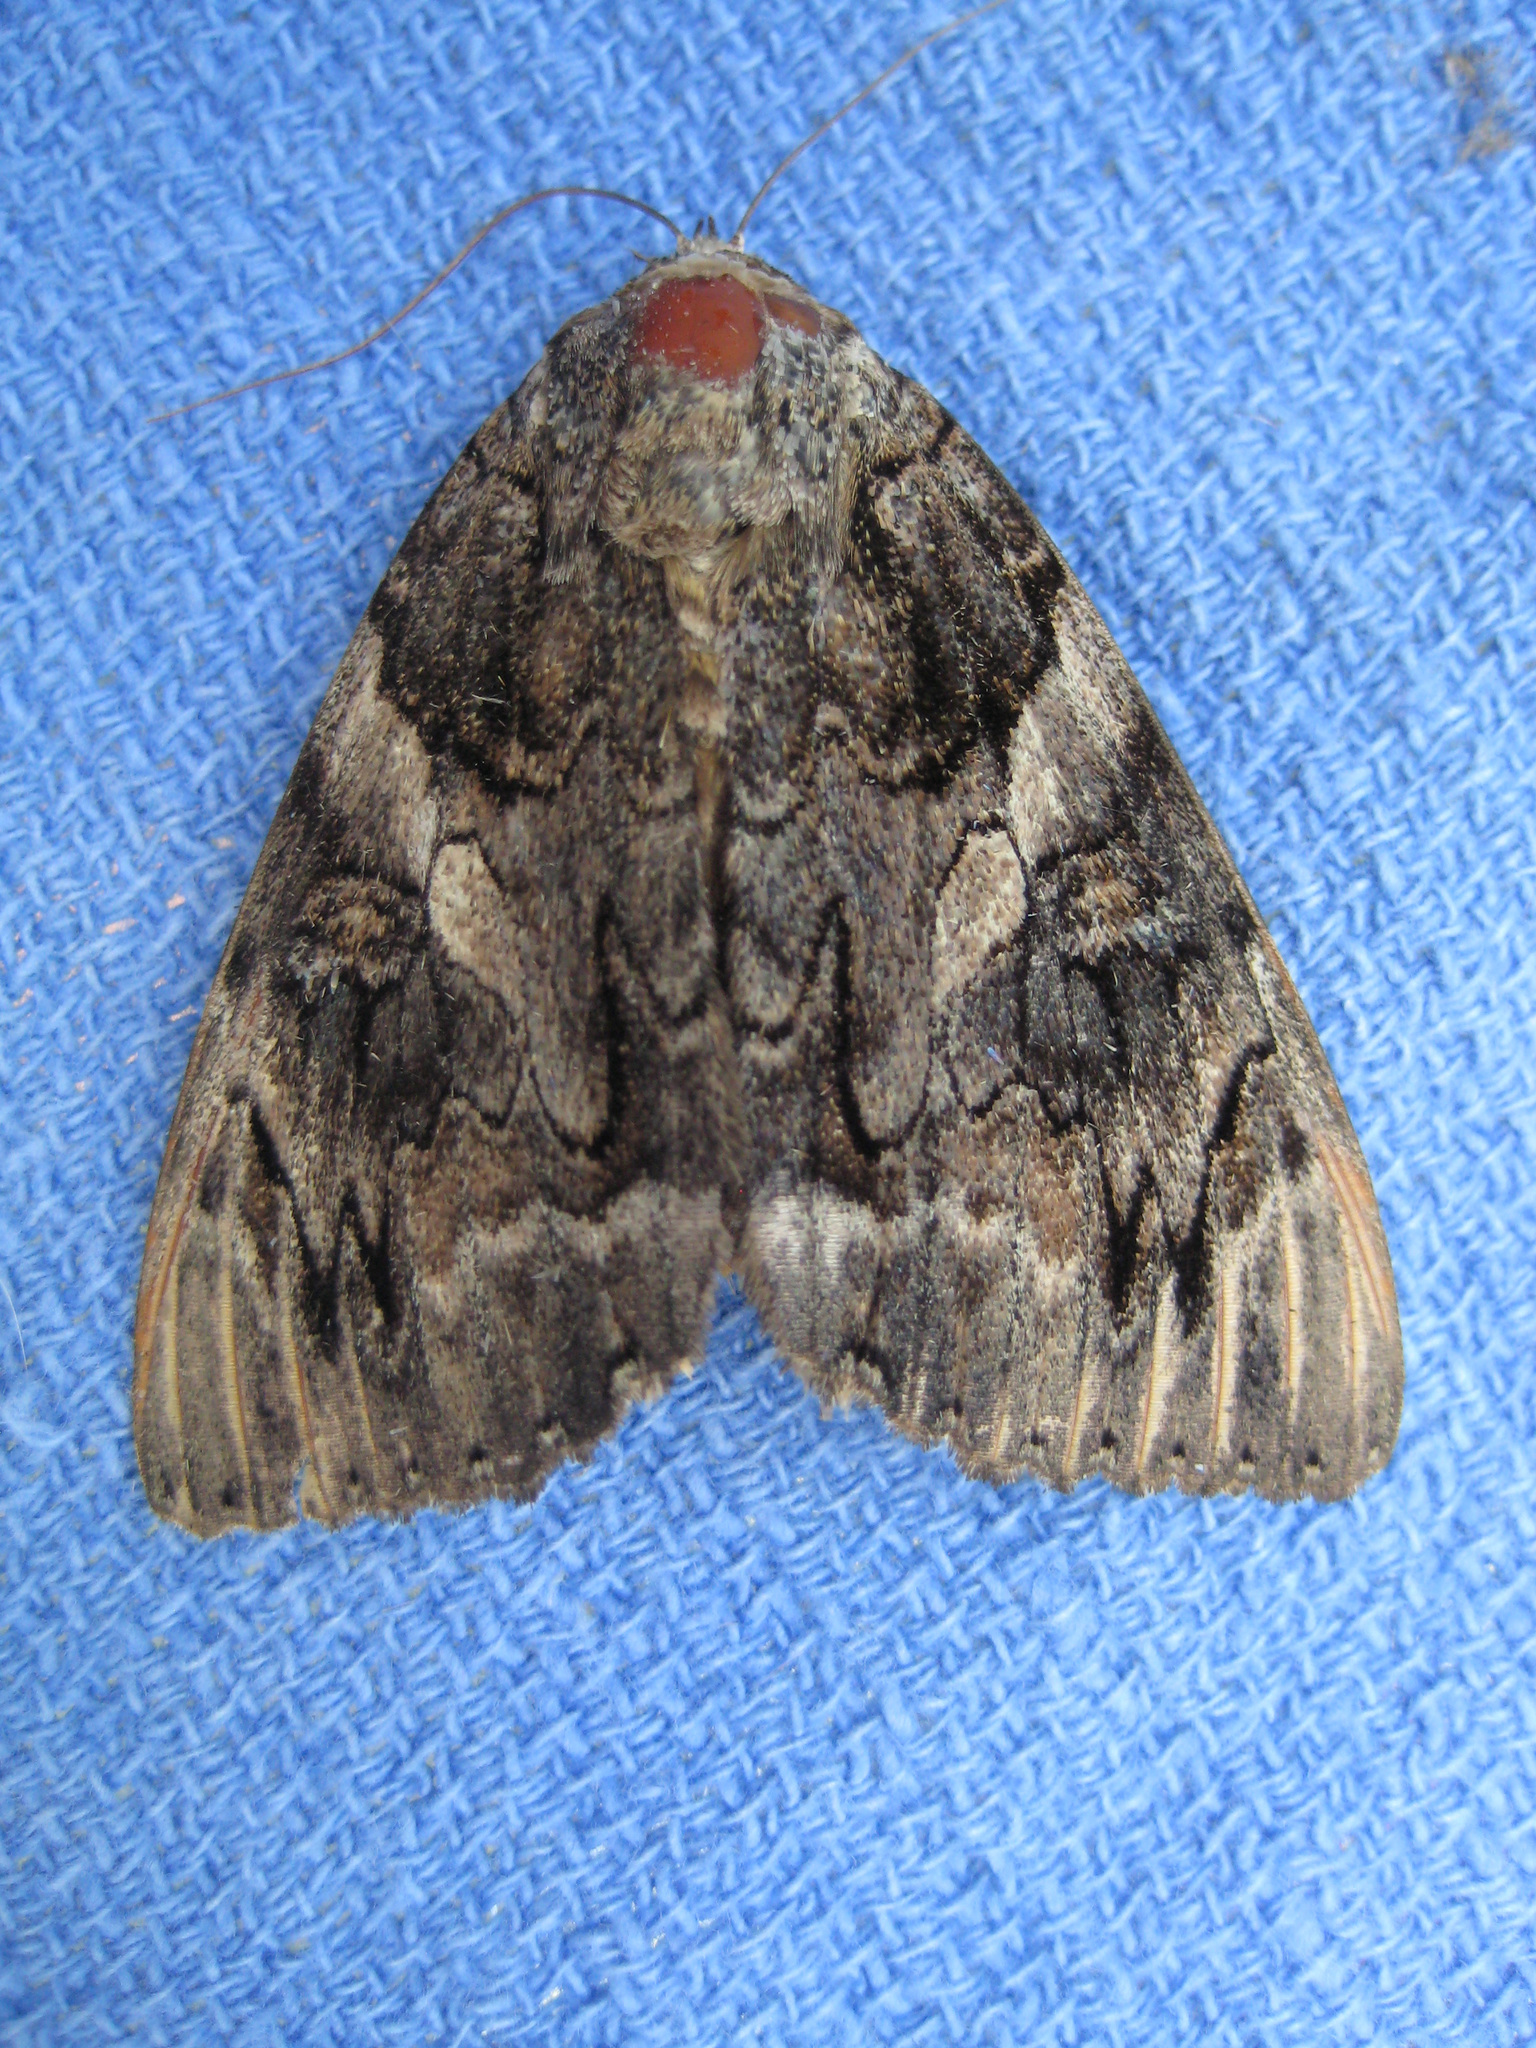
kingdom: Animalia
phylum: Arthropoda
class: Insecta
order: Lepidoptera
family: Erebidae
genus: Catocala
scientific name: Catocala piatrix
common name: The penitent underwing
